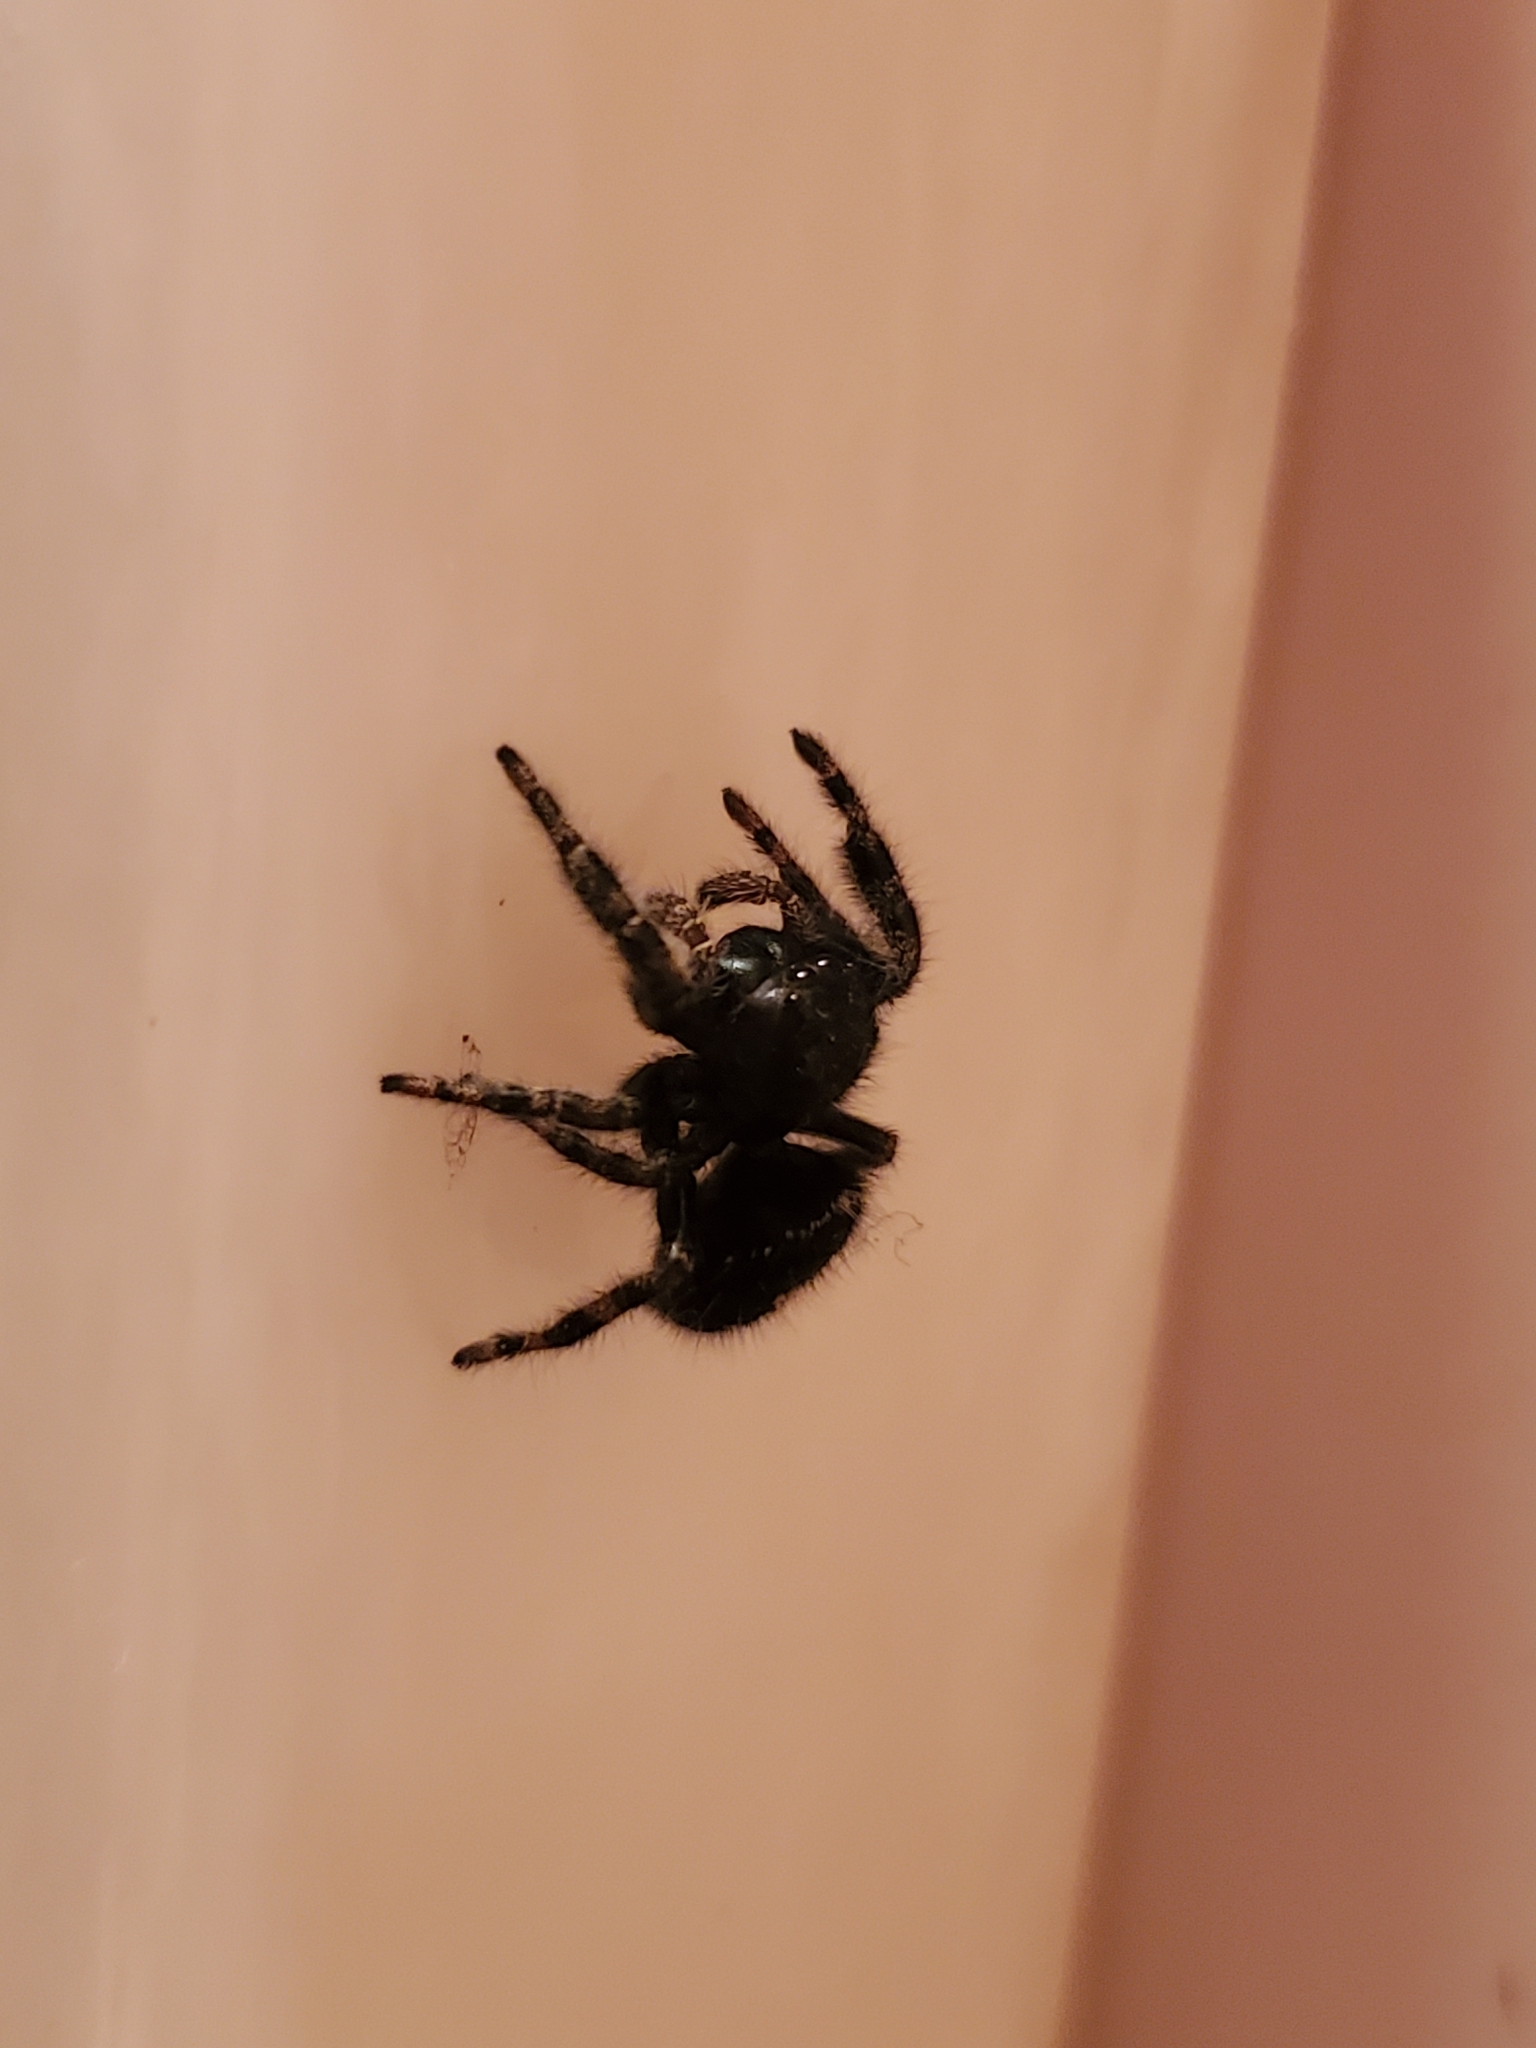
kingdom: Animalia
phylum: Arthropoda
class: Arachnida
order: Araneae
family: Salticidae
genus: Phidippus
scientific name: Phidippus audax
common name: Bold jumper
